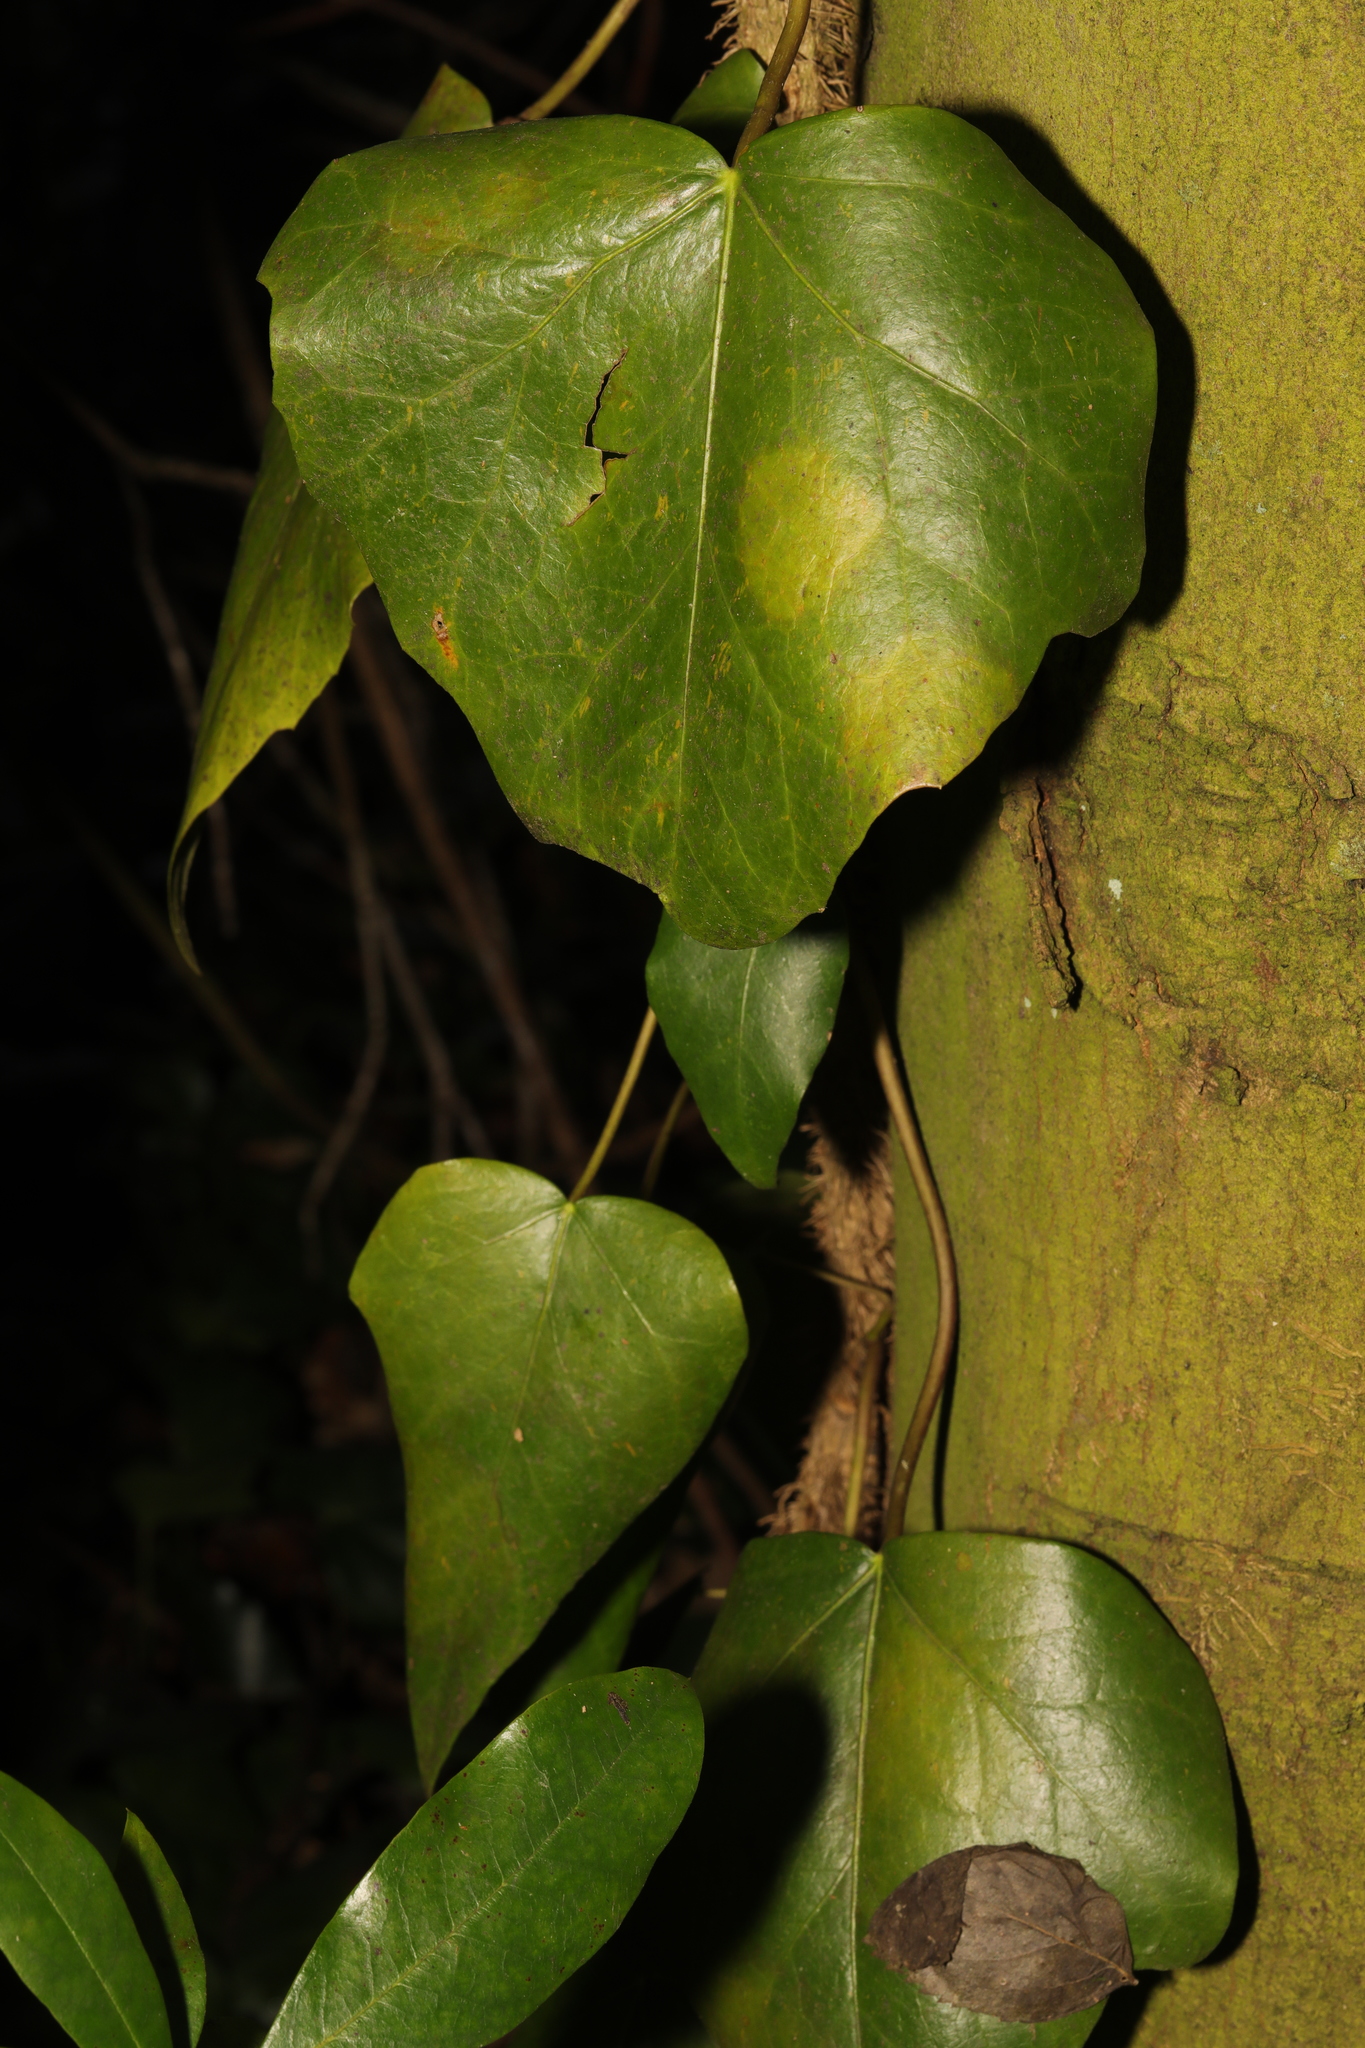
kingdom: Plantae
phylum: Tracheophyta
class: Magnoliopsida
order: Apiales
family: Araliaceae
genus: Hedera
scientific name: Hedera colchica
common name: Persian ivy
